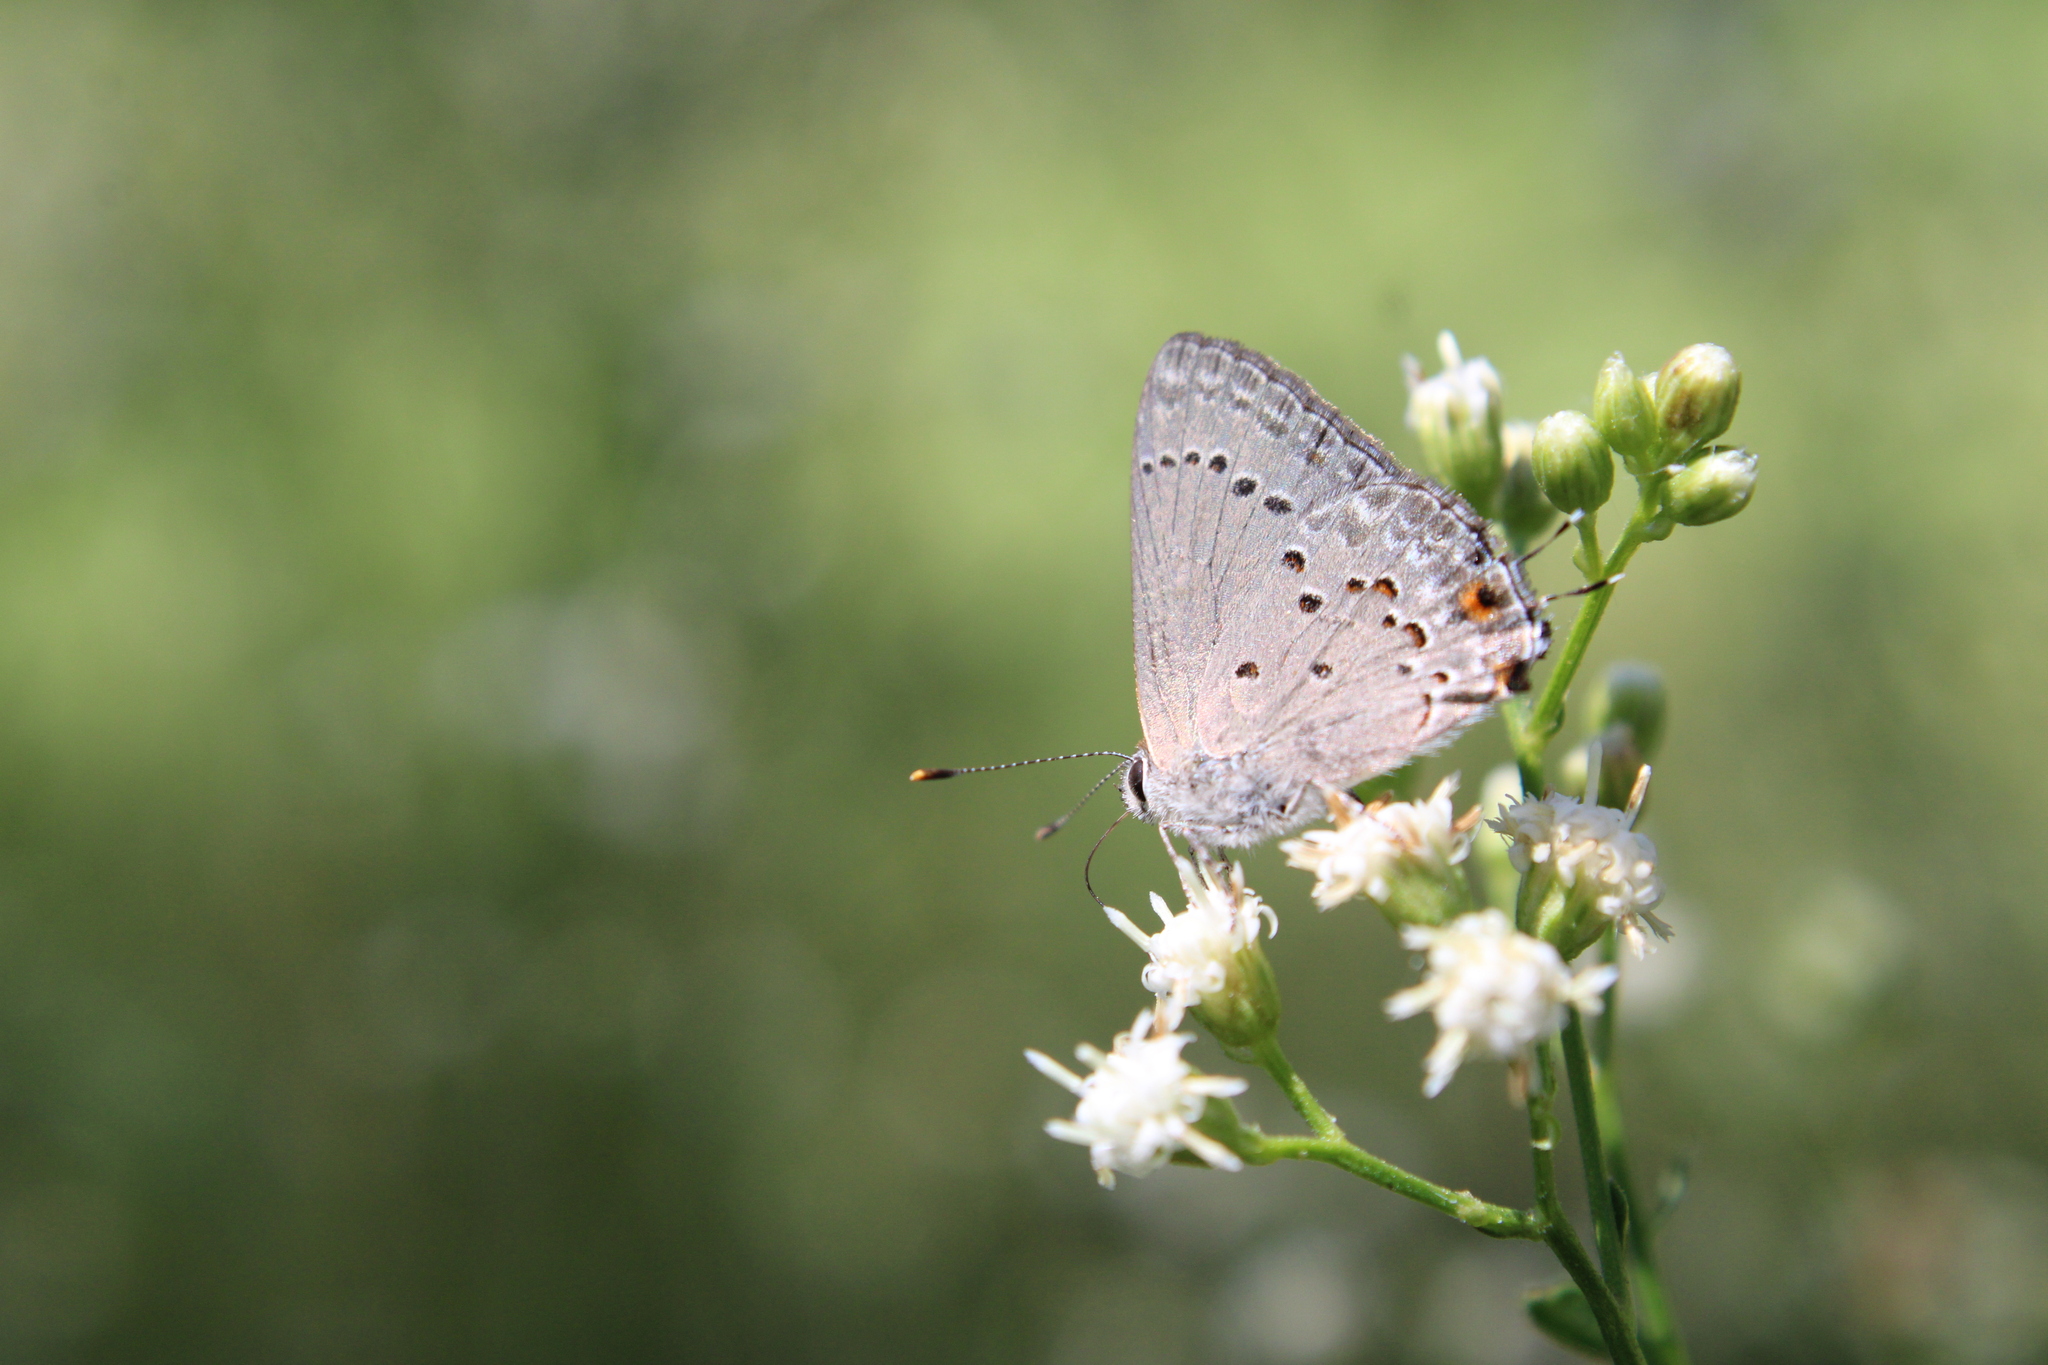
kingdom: Animalia
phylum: Arthropoda
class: Insecta
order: Lepidoptera
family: Lycaenidae
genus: Strymon
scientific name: Strymon eurytulus
